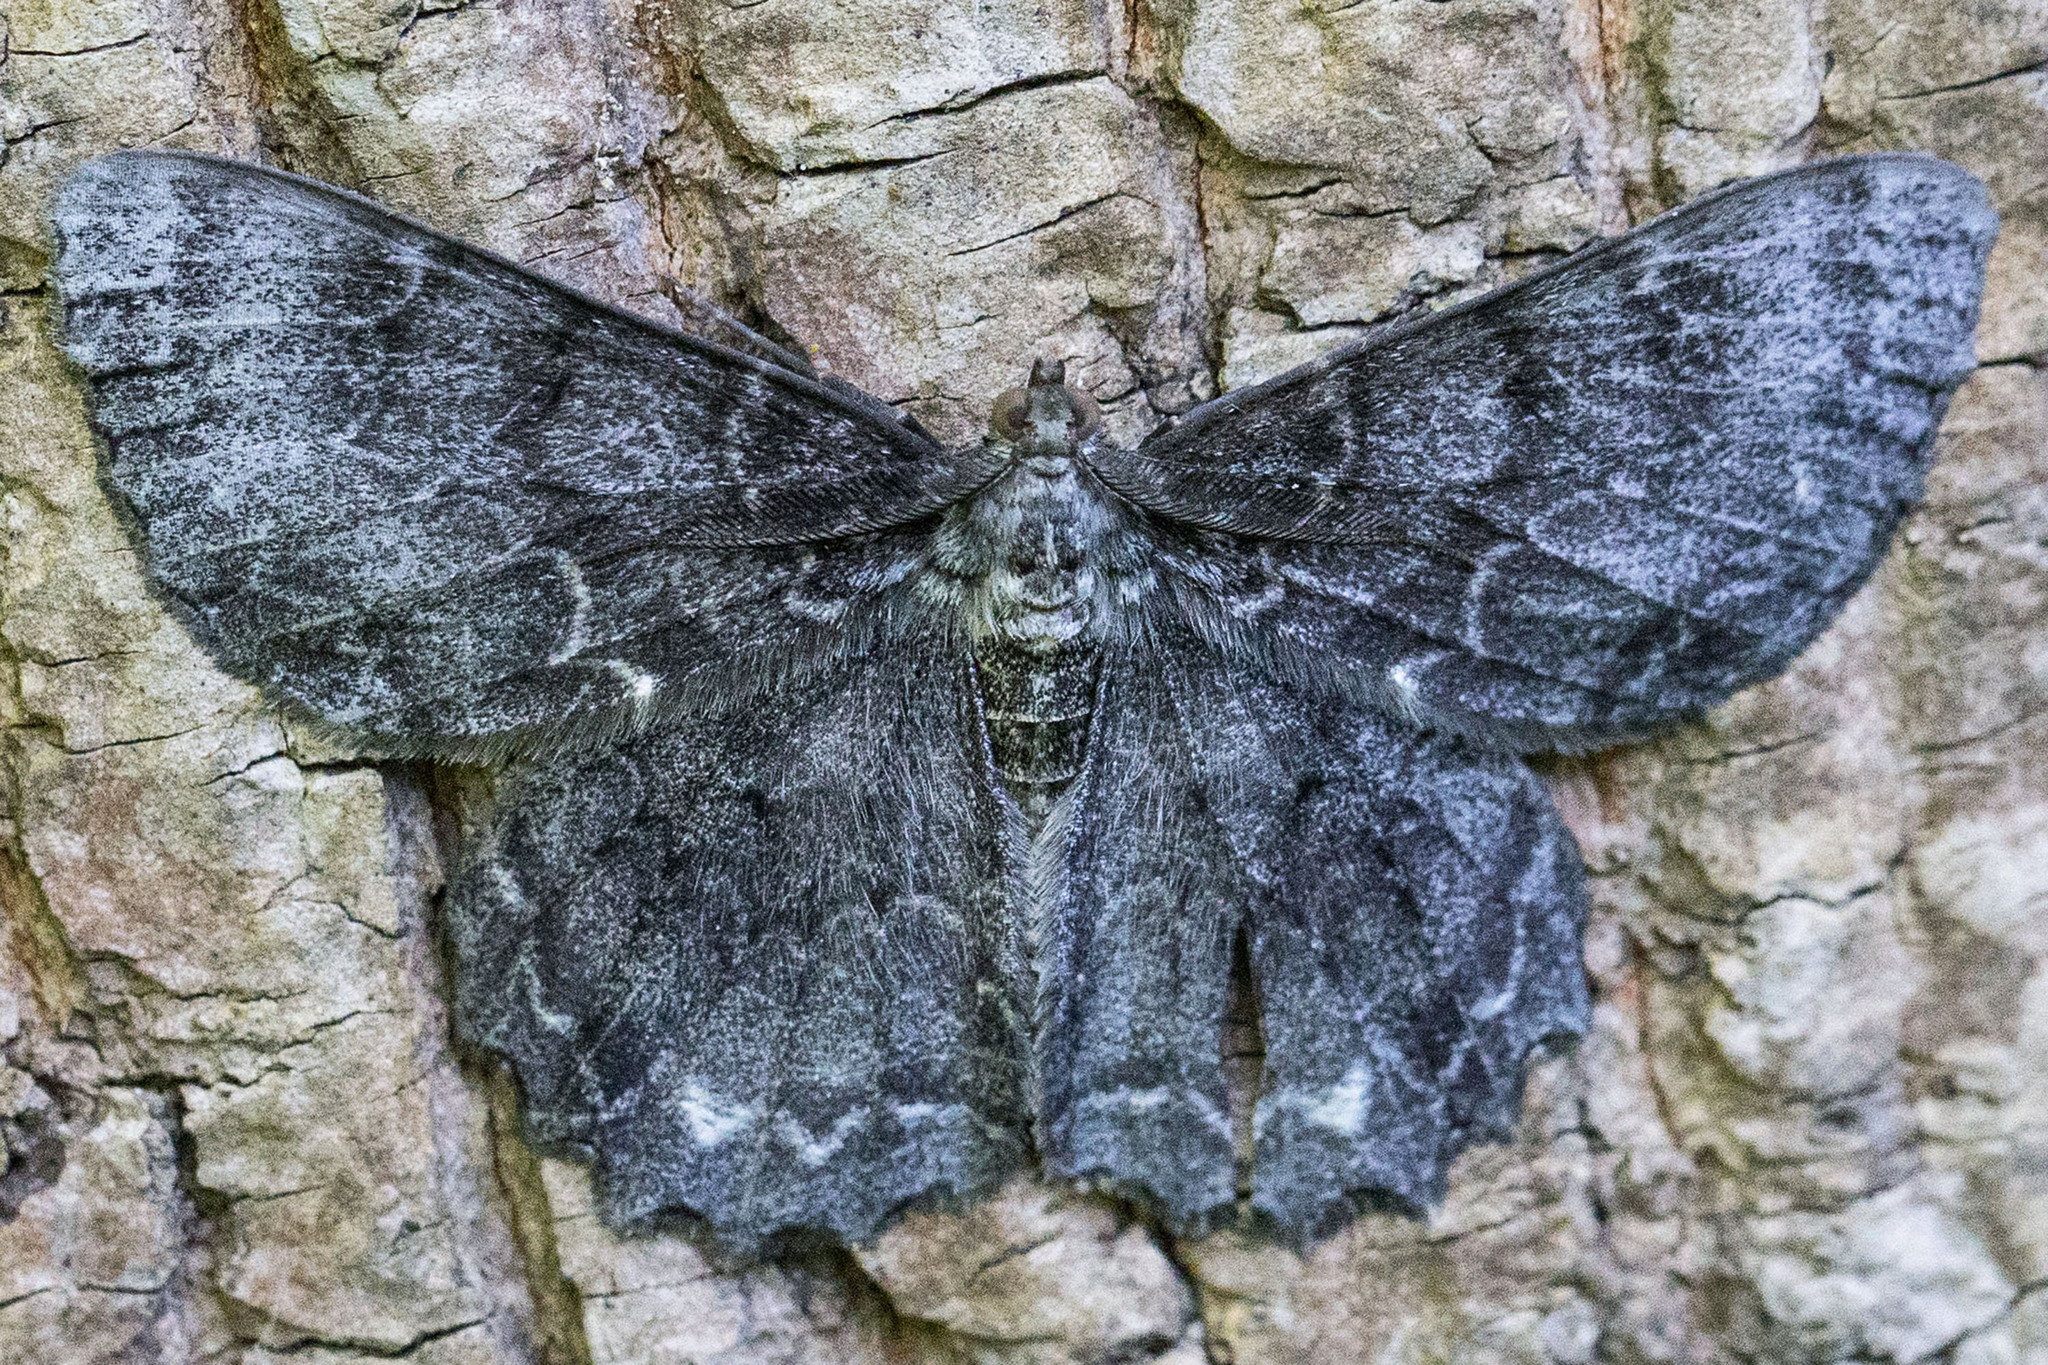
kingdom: Animalia
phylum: Arthropoda
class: Insecta
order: Lepidoptera
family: Geometridae
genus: Epimecis
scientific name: Epimecis hortaria
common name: Tulip-tree beauty
